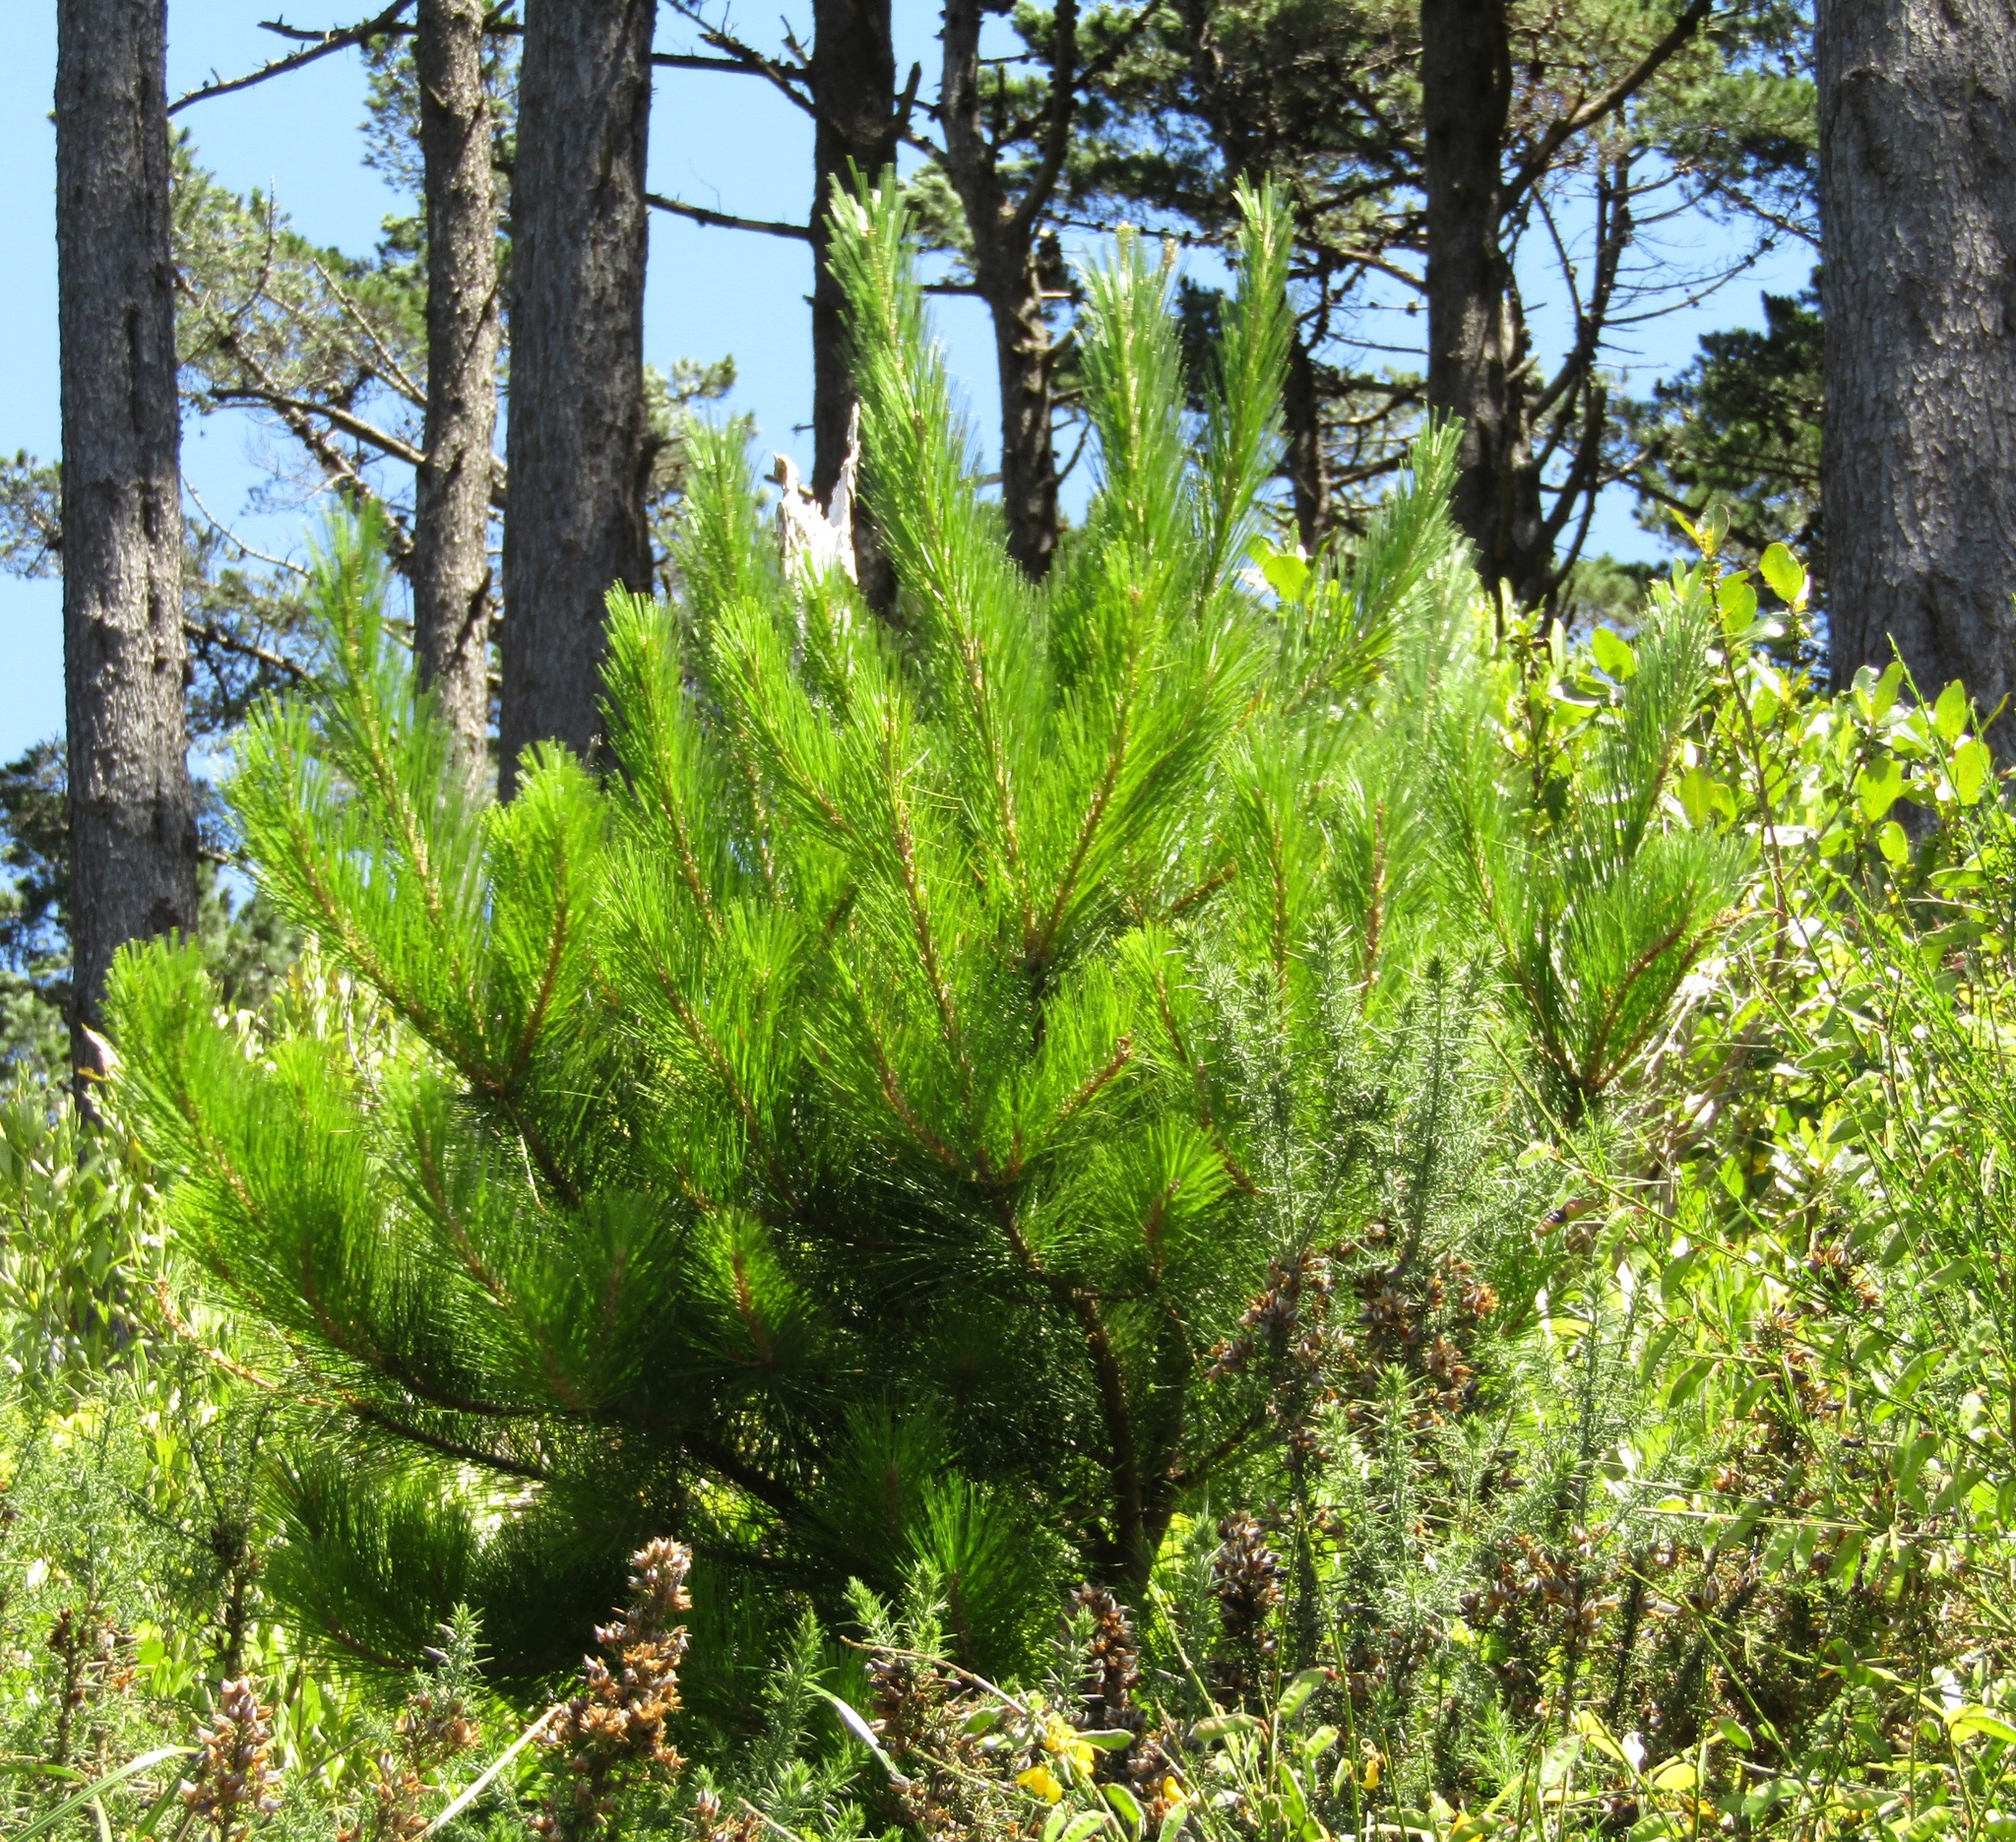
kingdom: Plantae
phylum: Tracheophyta
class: Pinopsida
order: Pinales
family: Pinaceae
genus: Pinus
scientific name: Pinus radiata
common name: Monterey pine
